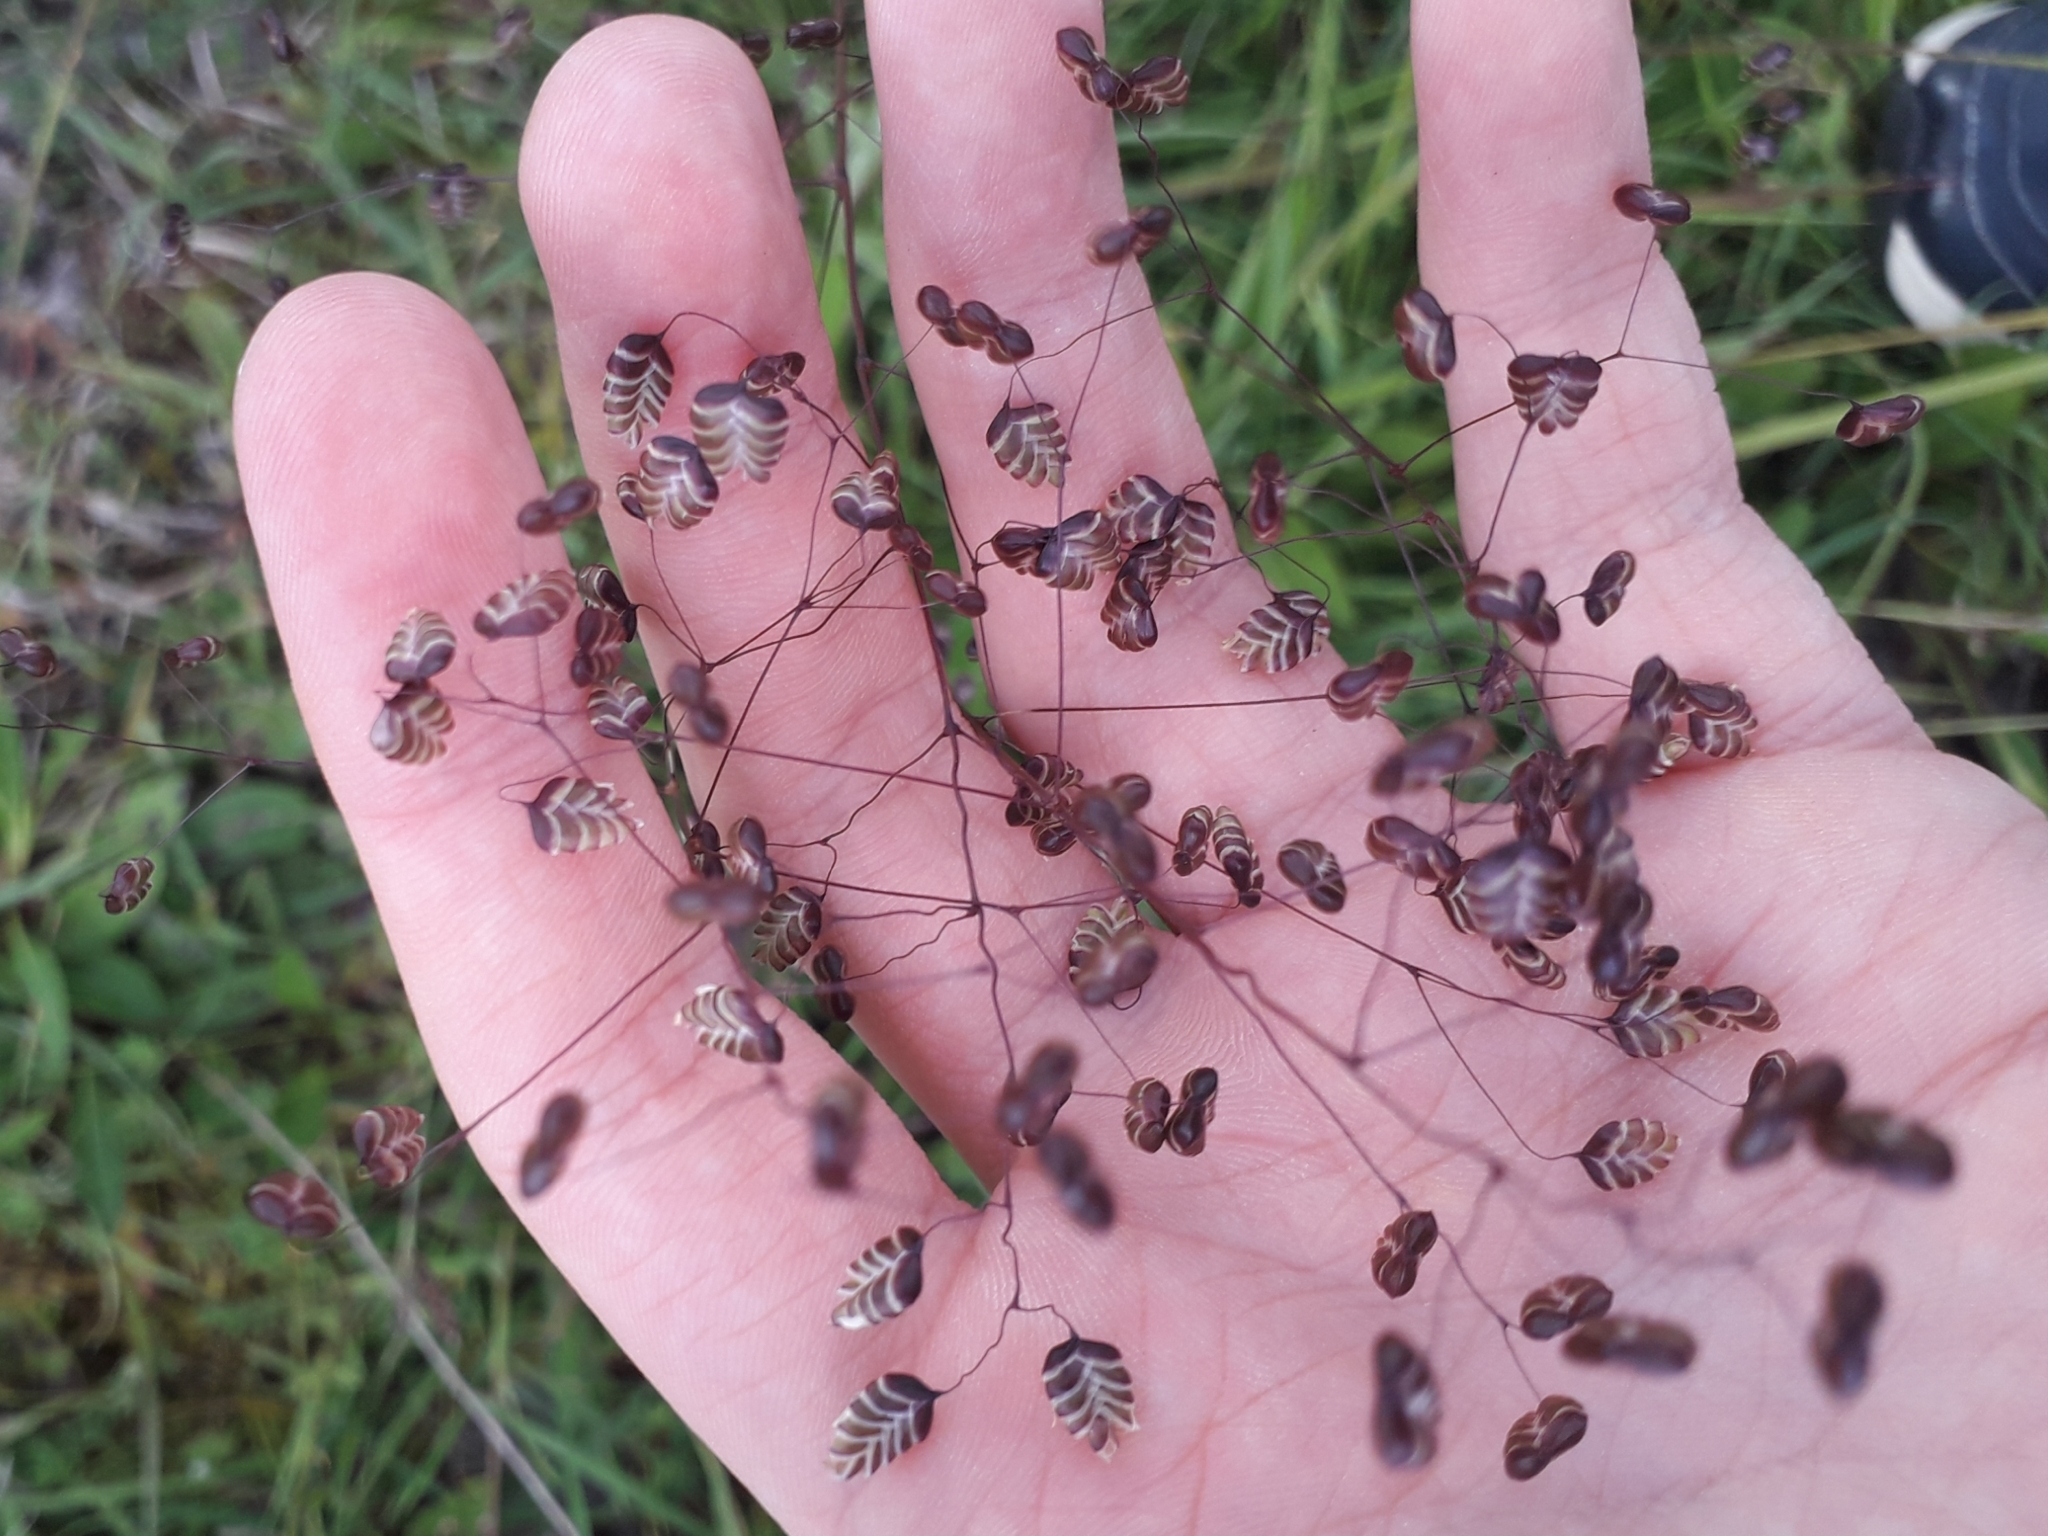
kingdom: Plantae
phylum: Tracheophyta
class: Liliopsida
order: Poales
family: Poaceae
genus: Briza
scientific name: Briza media
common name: Quaking grass
